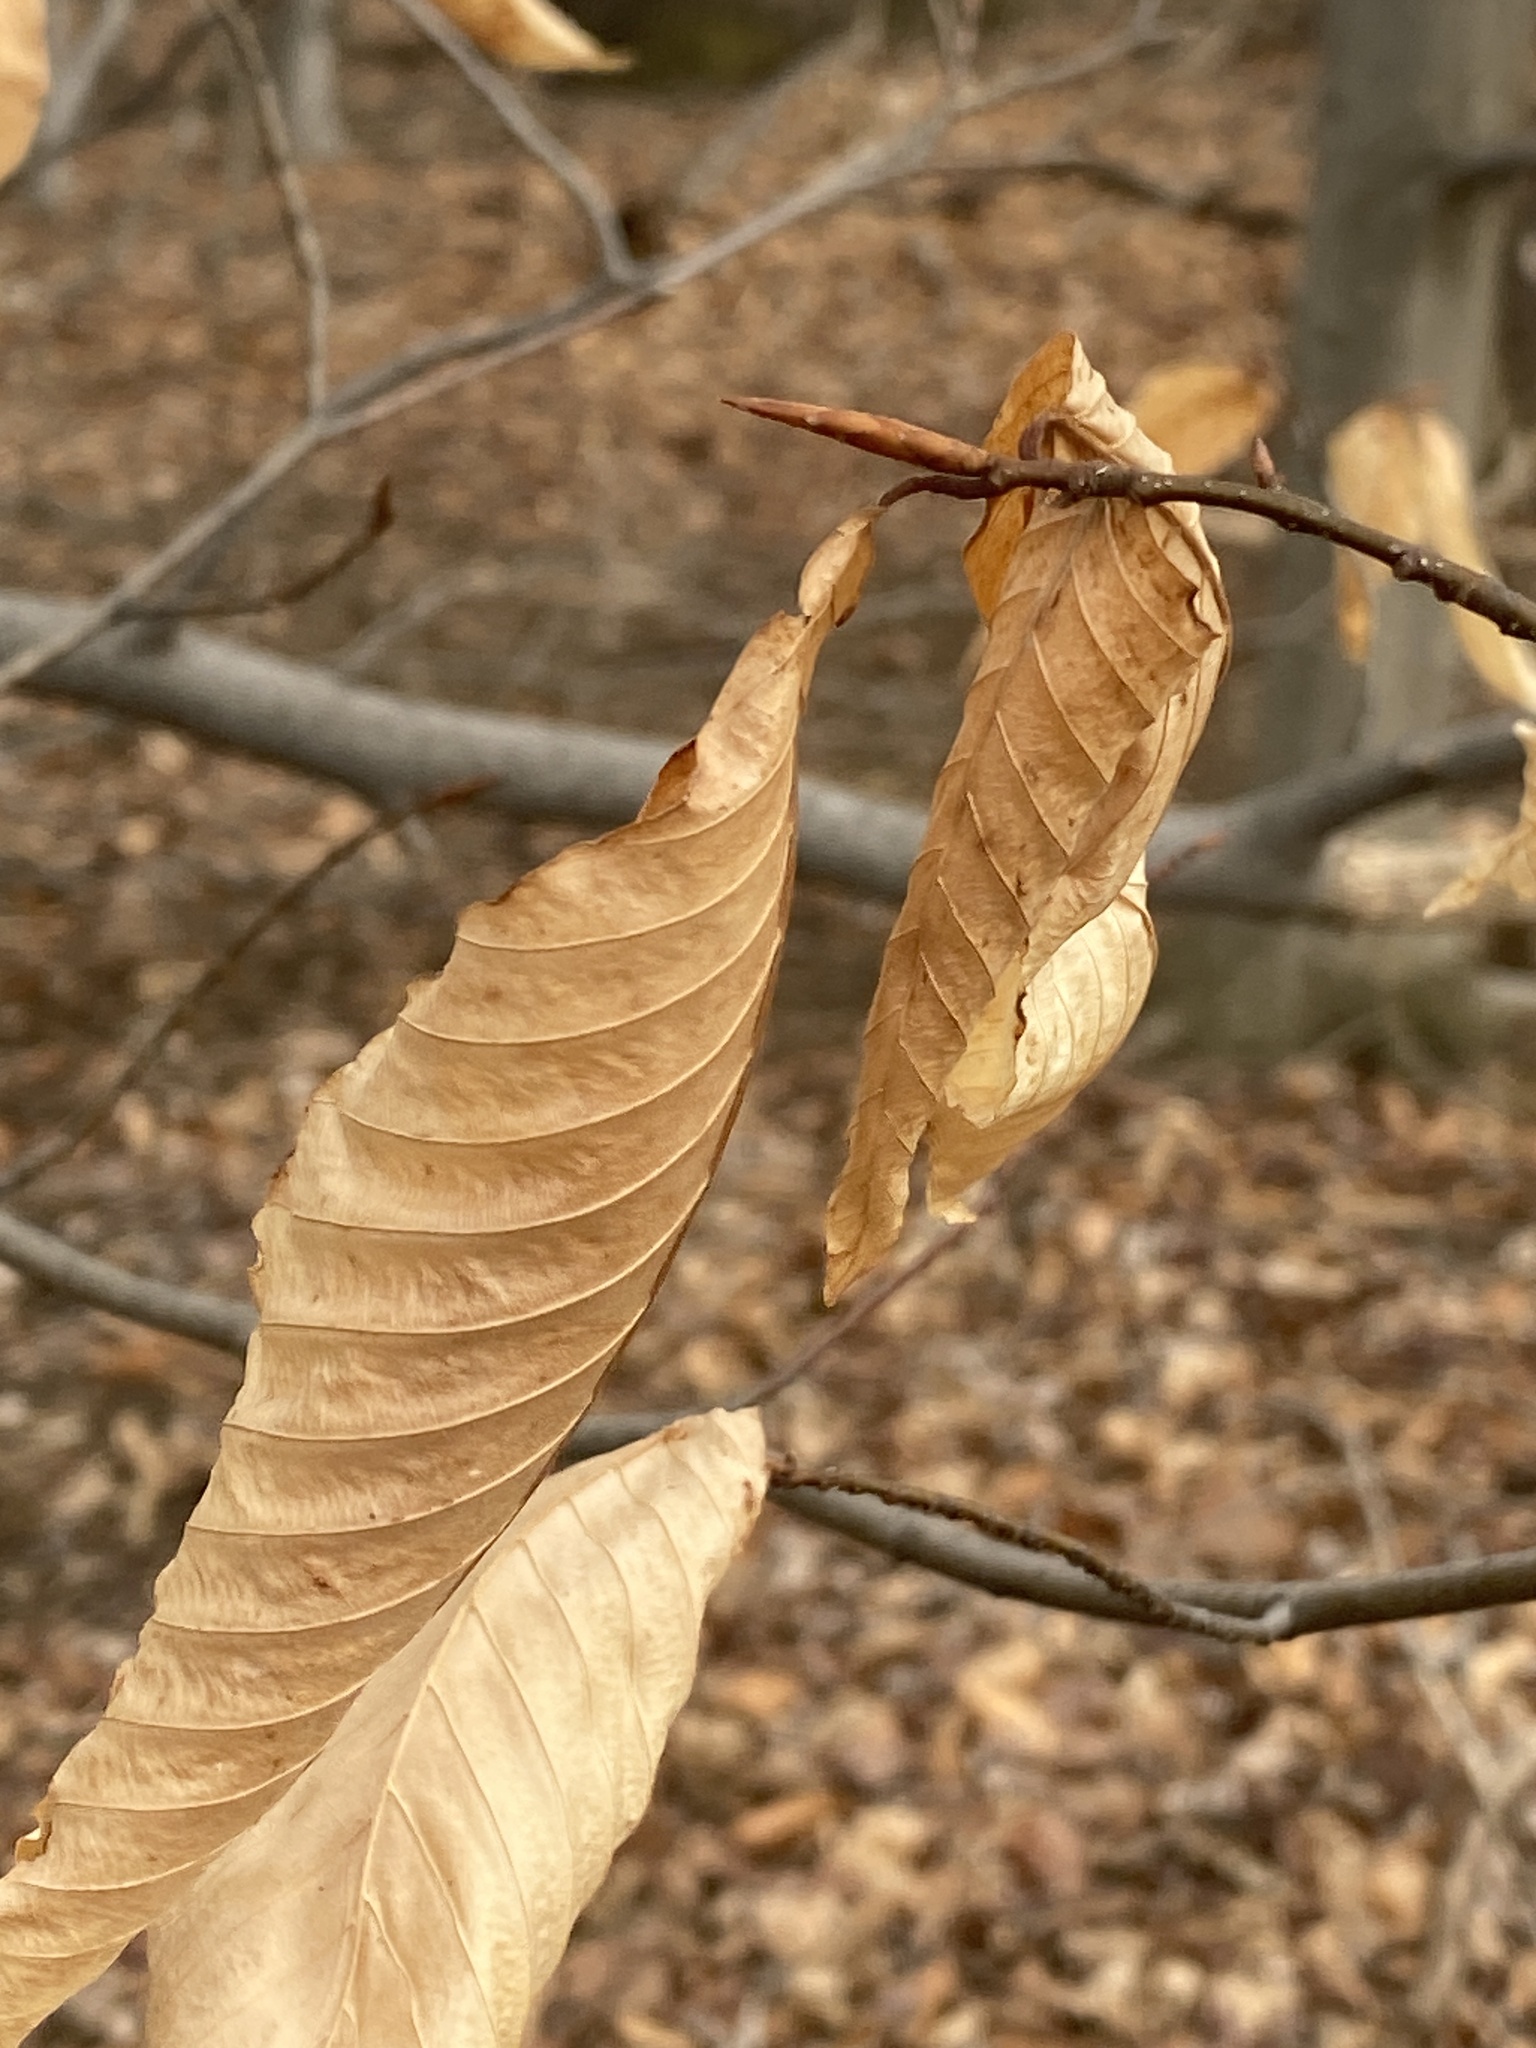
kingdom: Plantae
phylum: Tracheophyta
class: Magnoliopsida
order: Fagales
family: Fagaceae
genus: Fagus
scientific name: Fagus grandifolia
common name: American beech
